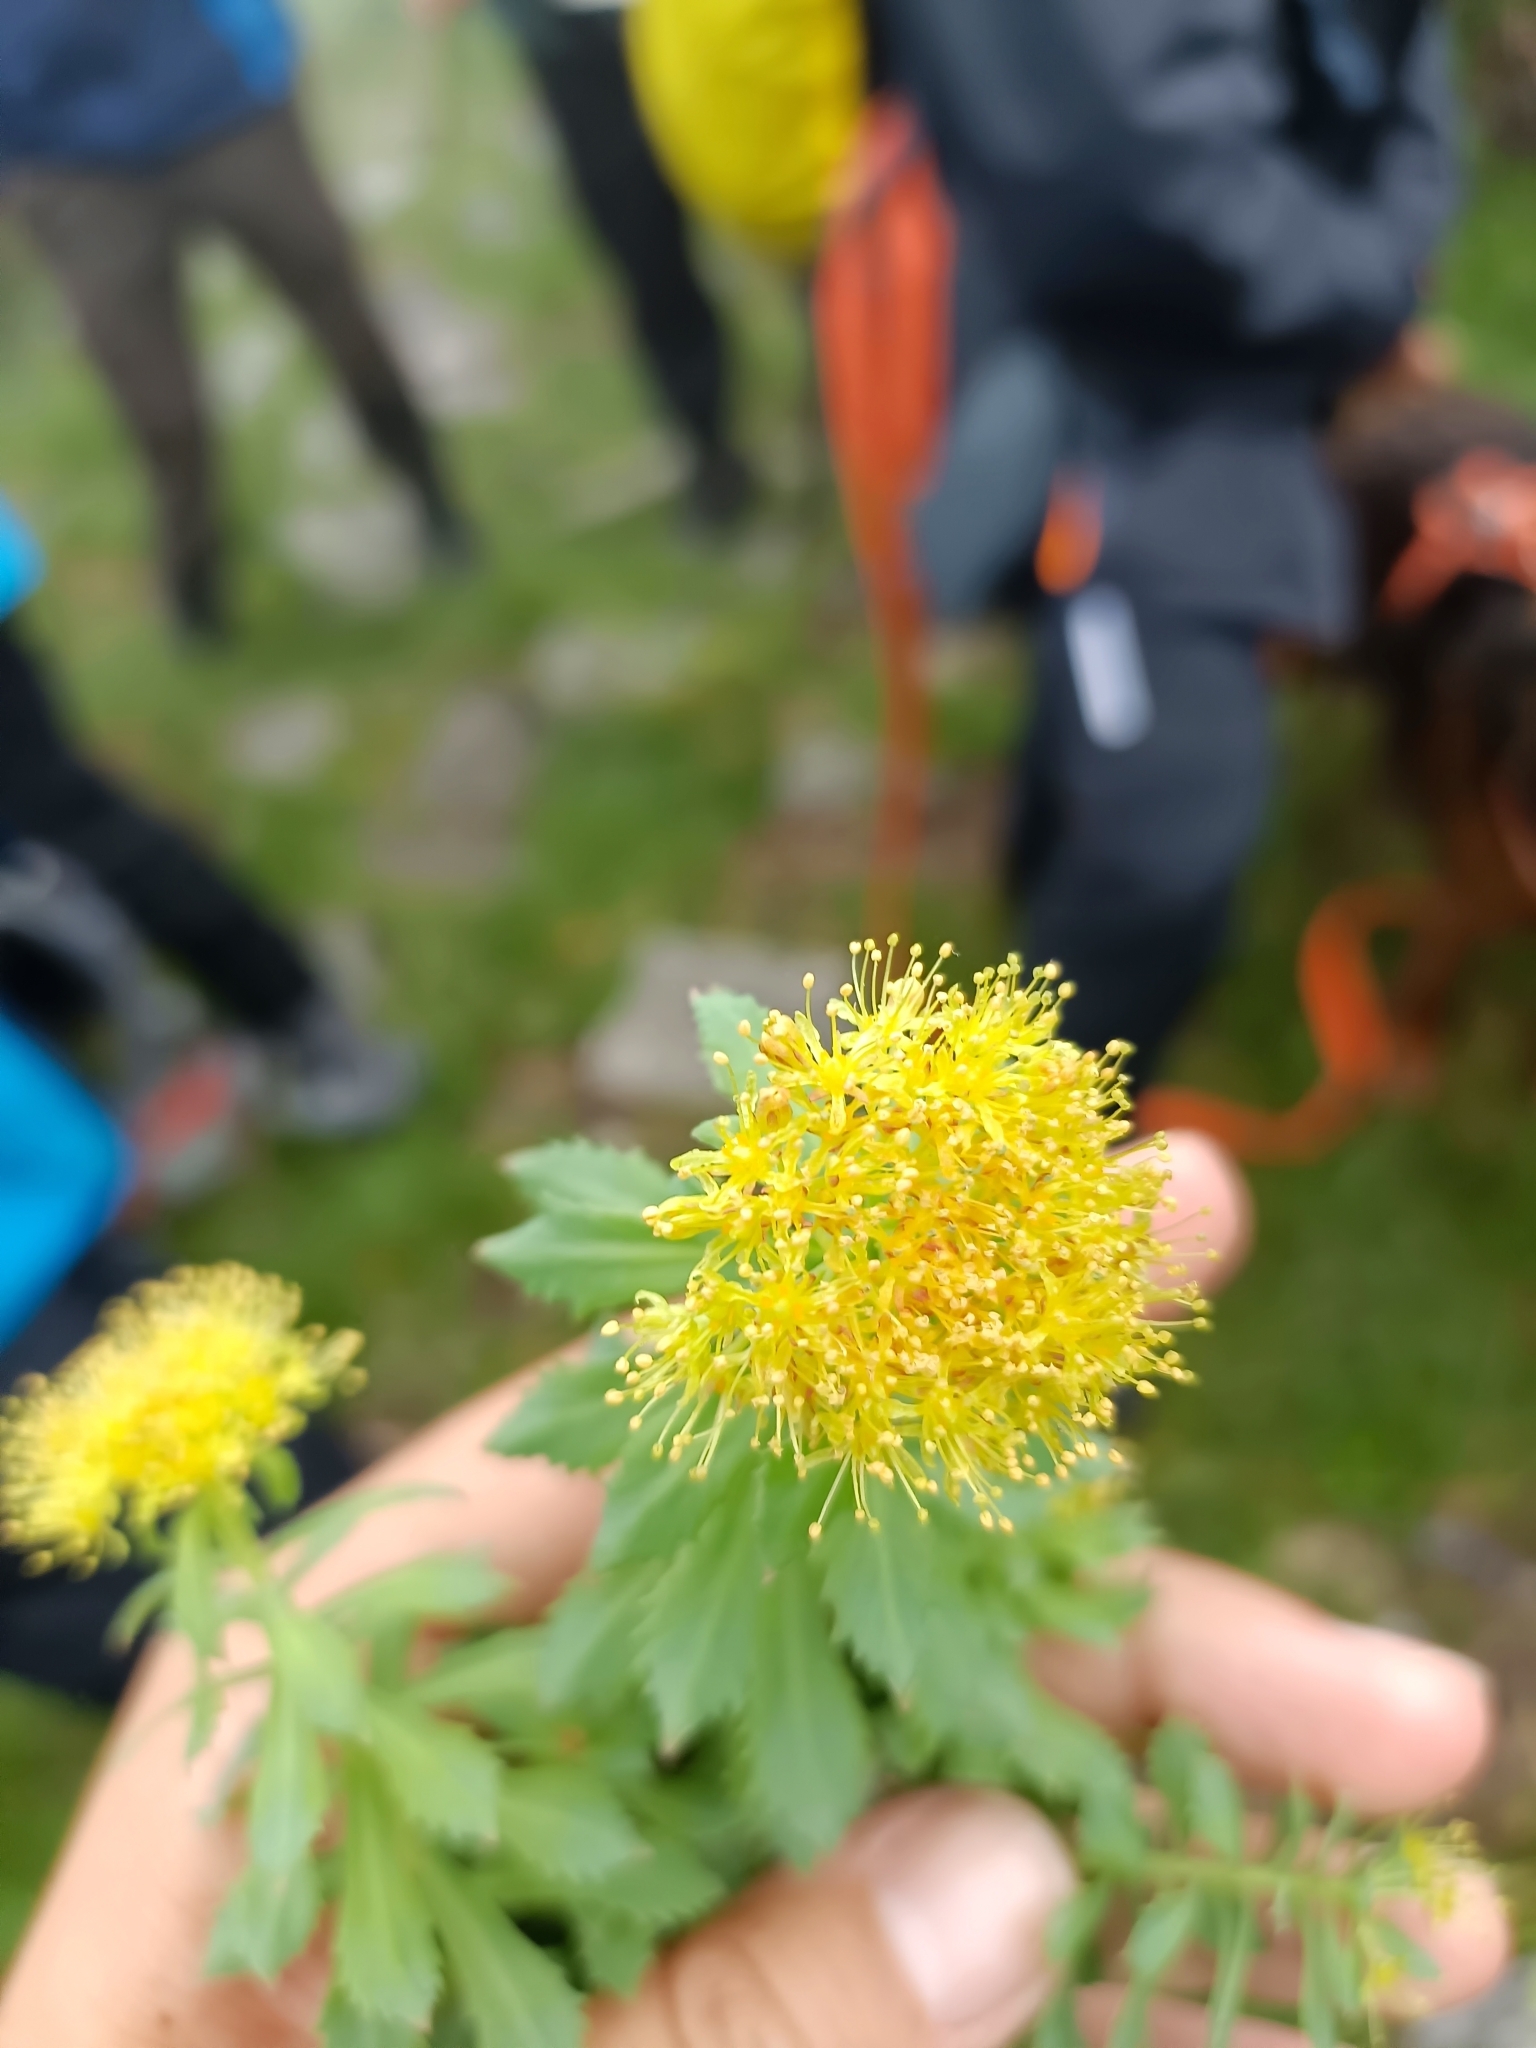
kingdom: Plantae
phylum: Tracheophyta
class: Magnoliopsida
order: Saxifragales
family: Crassulaceae
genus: Rhodiola
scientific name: Rhodiola rosea
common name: Roseroot
